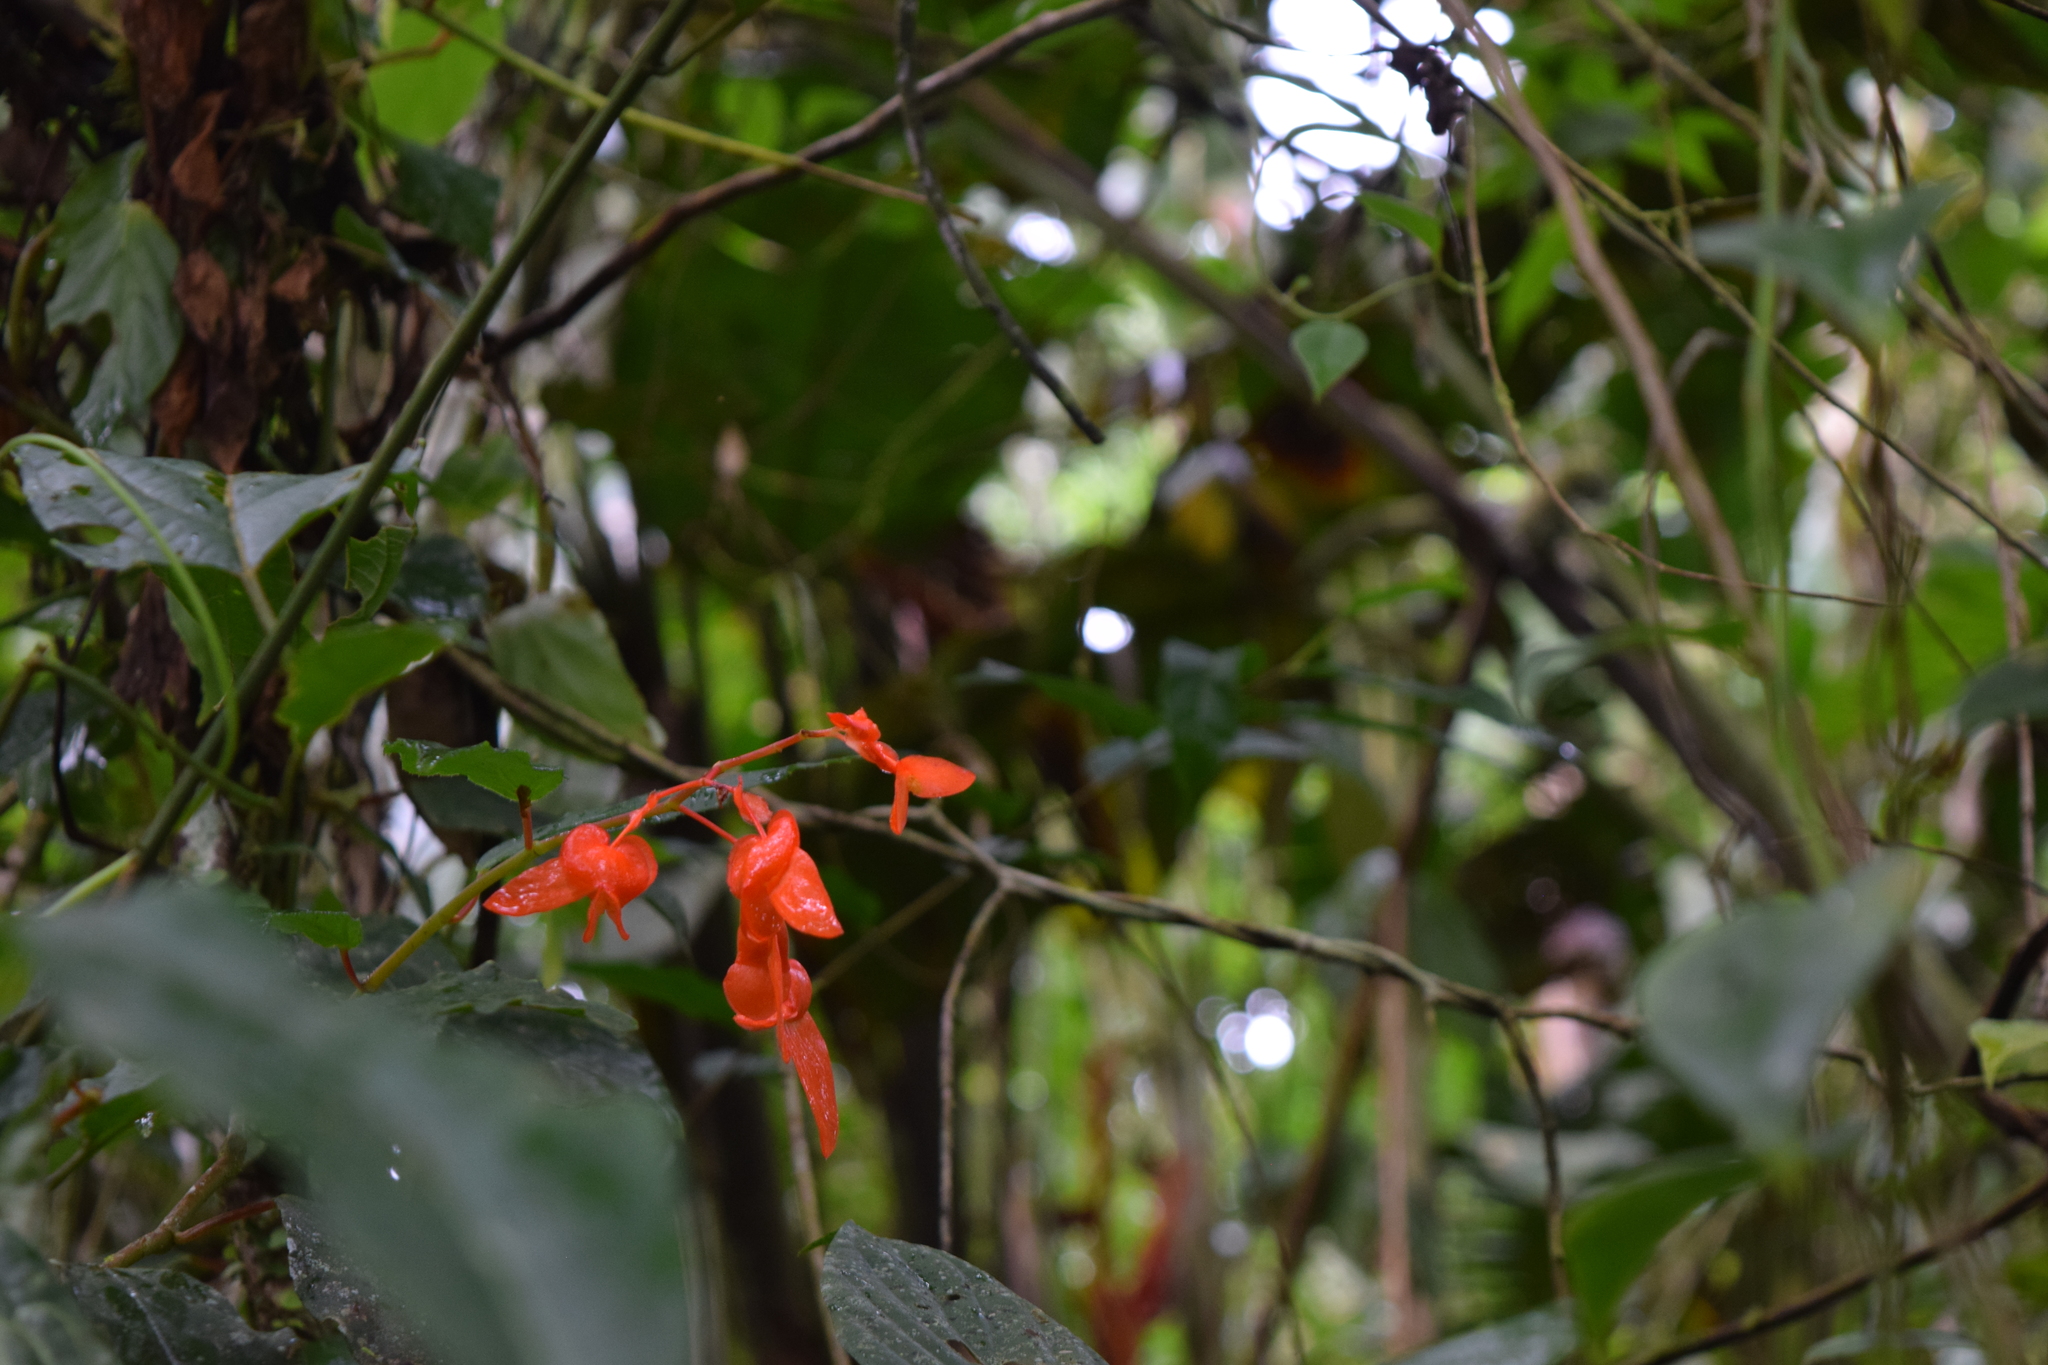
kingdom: Plantae
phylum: Tracheophyta
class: Magnoliopsida
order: Cucurbitales
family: Begoniaceae
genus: Begonia
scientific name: Begonia rossmanniae
